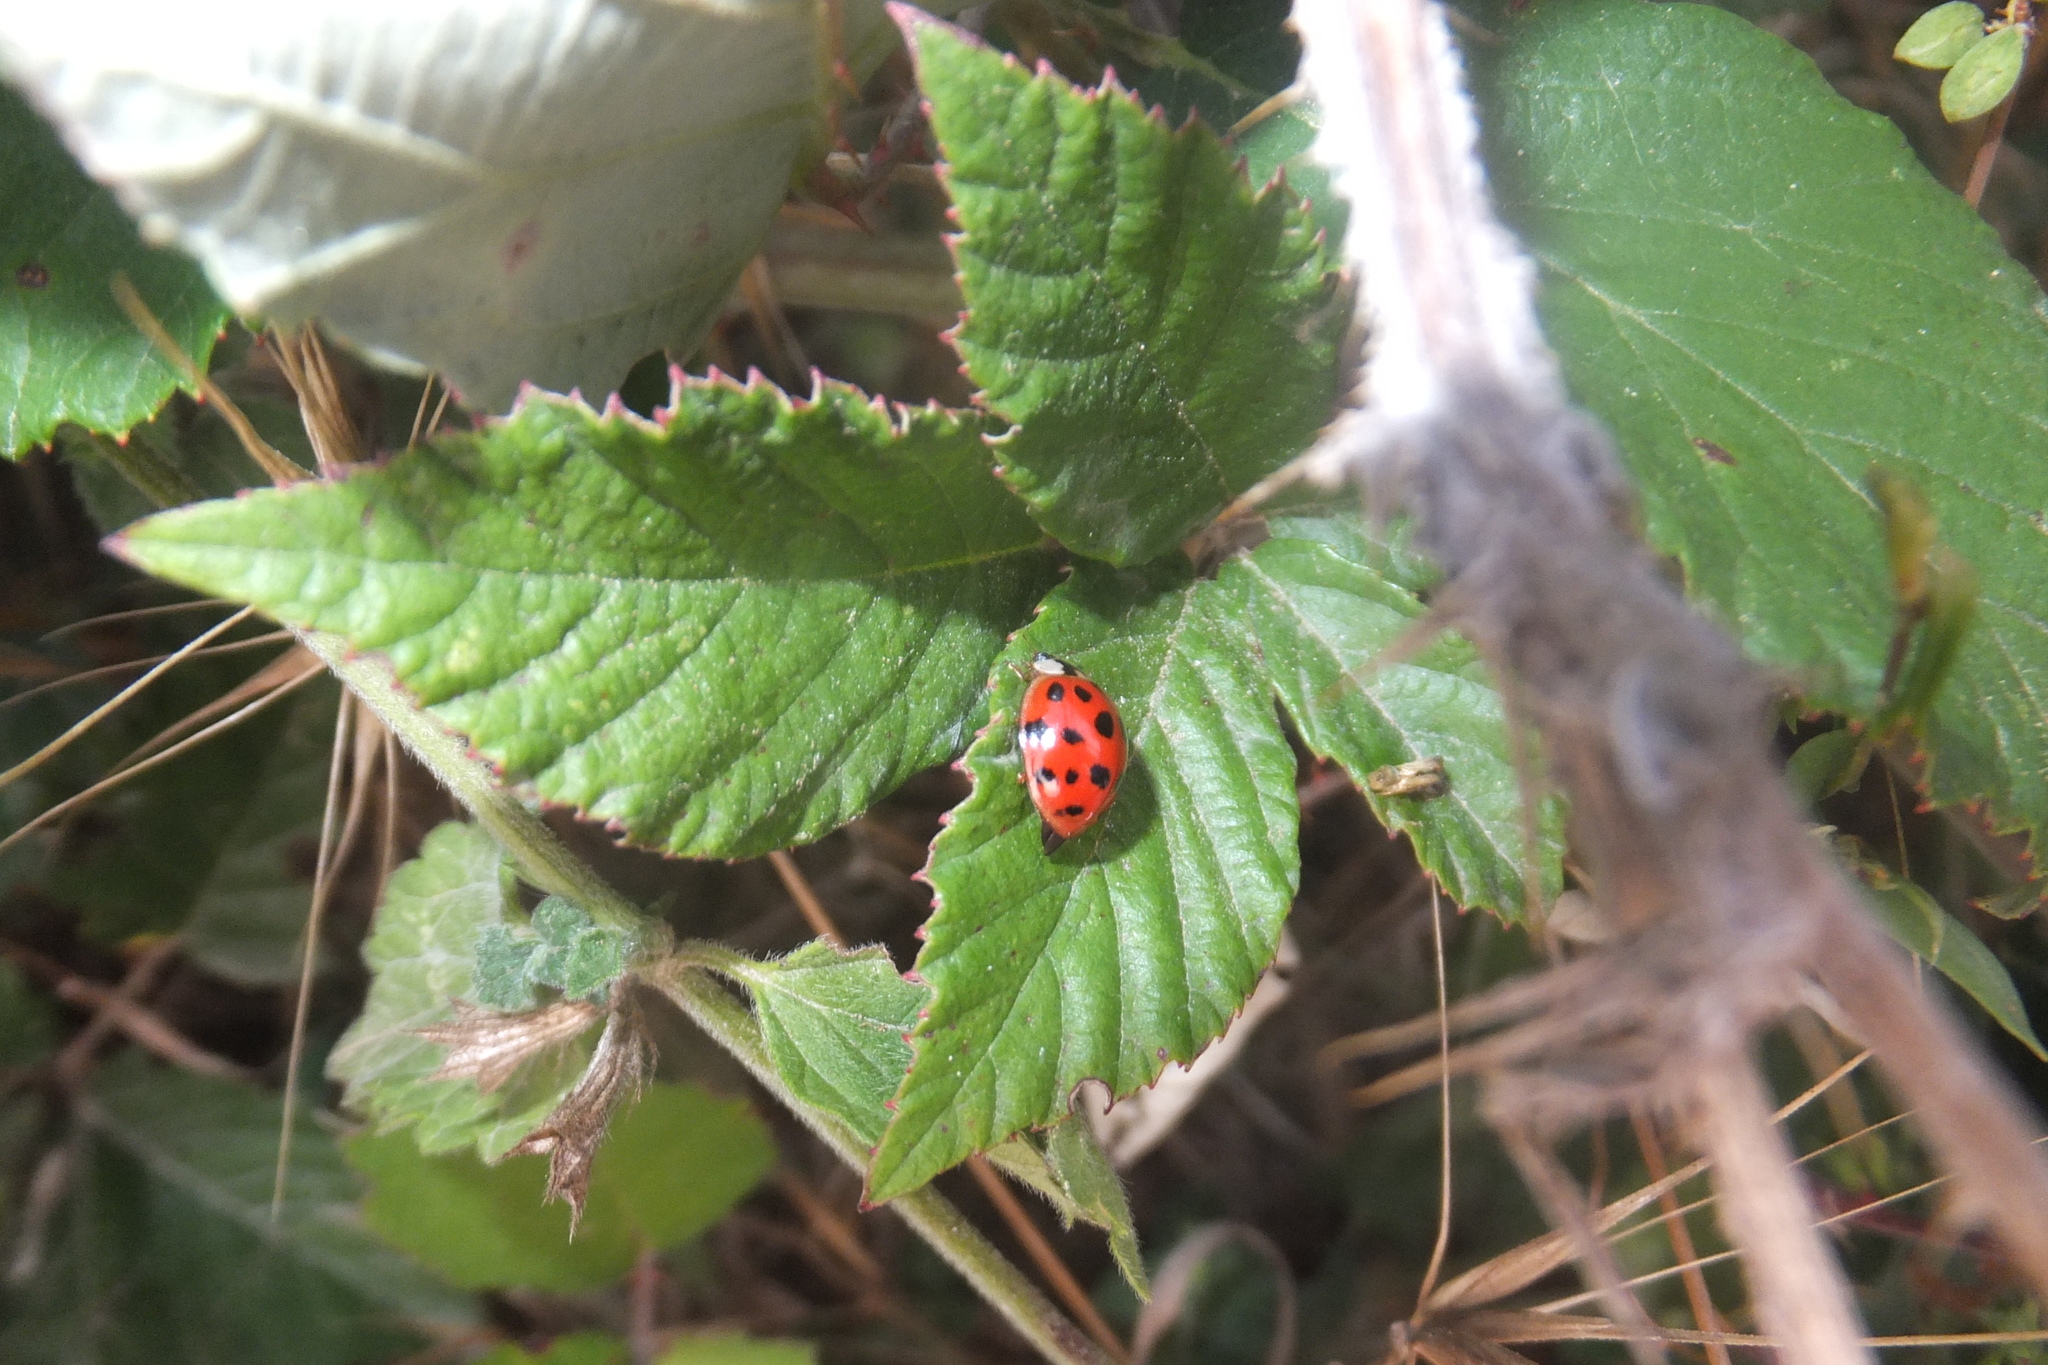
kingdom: Animalia
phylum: Arthropoda
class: Insecta
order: Coleoptera
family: Coccinellidae
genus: Harmonia
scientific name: Harmonia axyridis
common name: Harlequin ladybird
